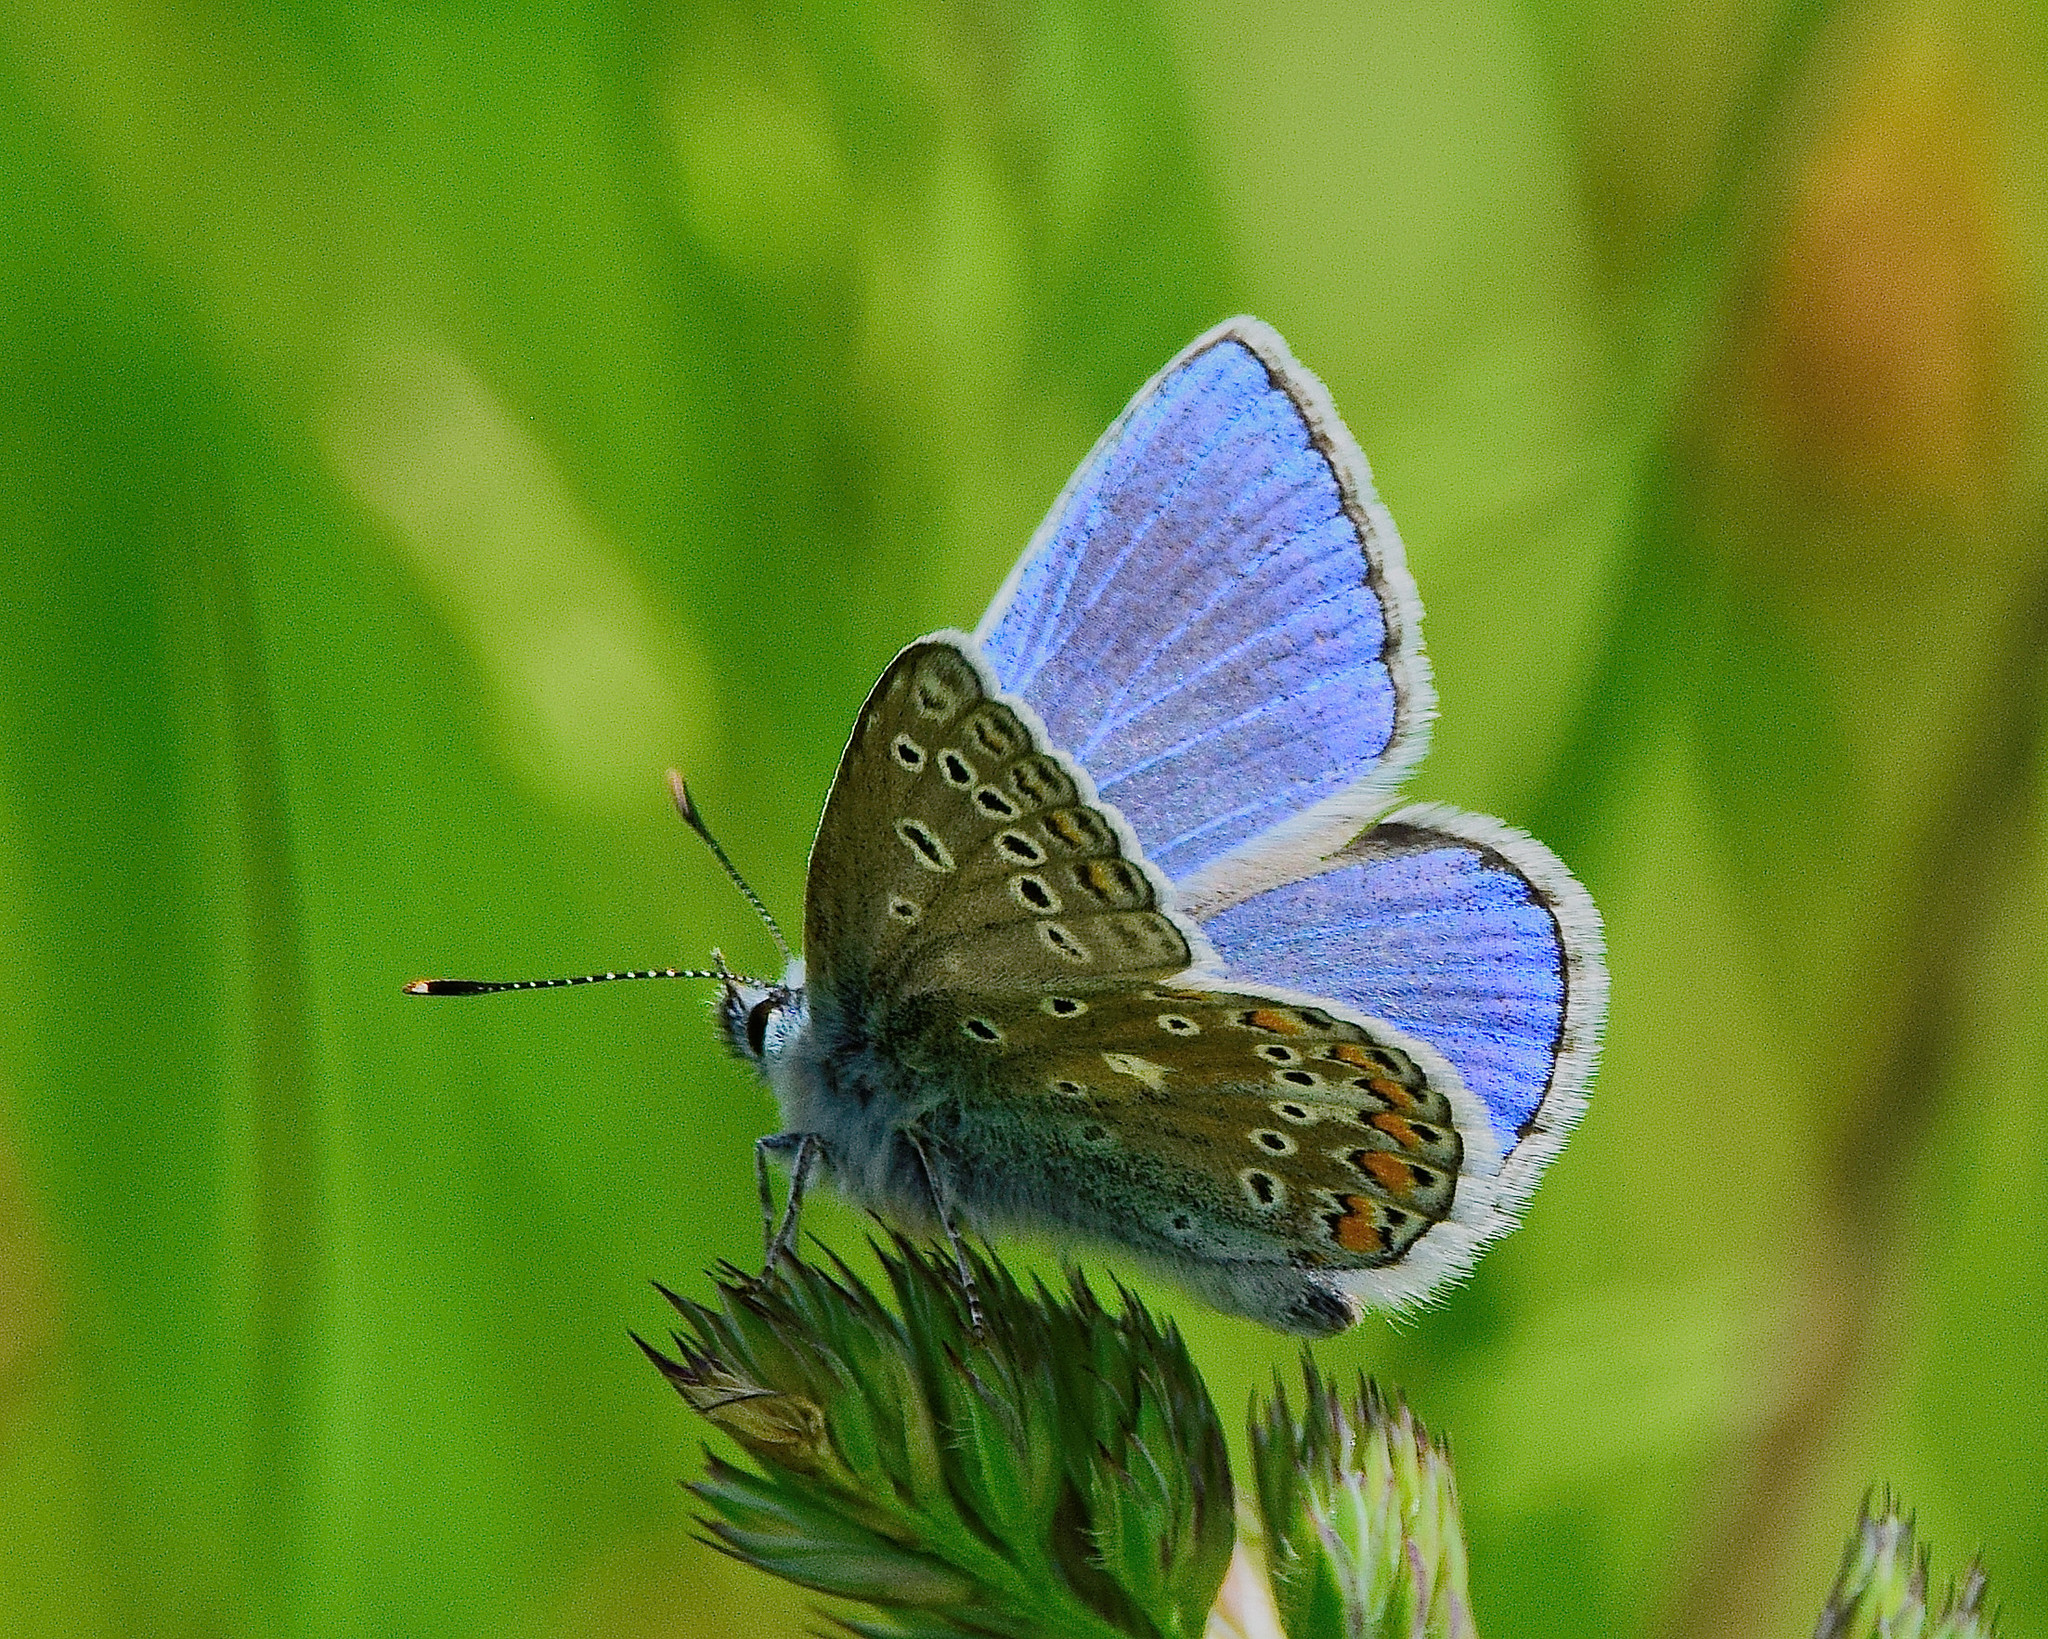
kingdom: Animalia
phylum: Arthropoda
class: Insecta
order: Lepidoptera
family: Lycaenidae
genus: Polyommatus
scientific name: Polyommatus icarus
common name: Common blue
